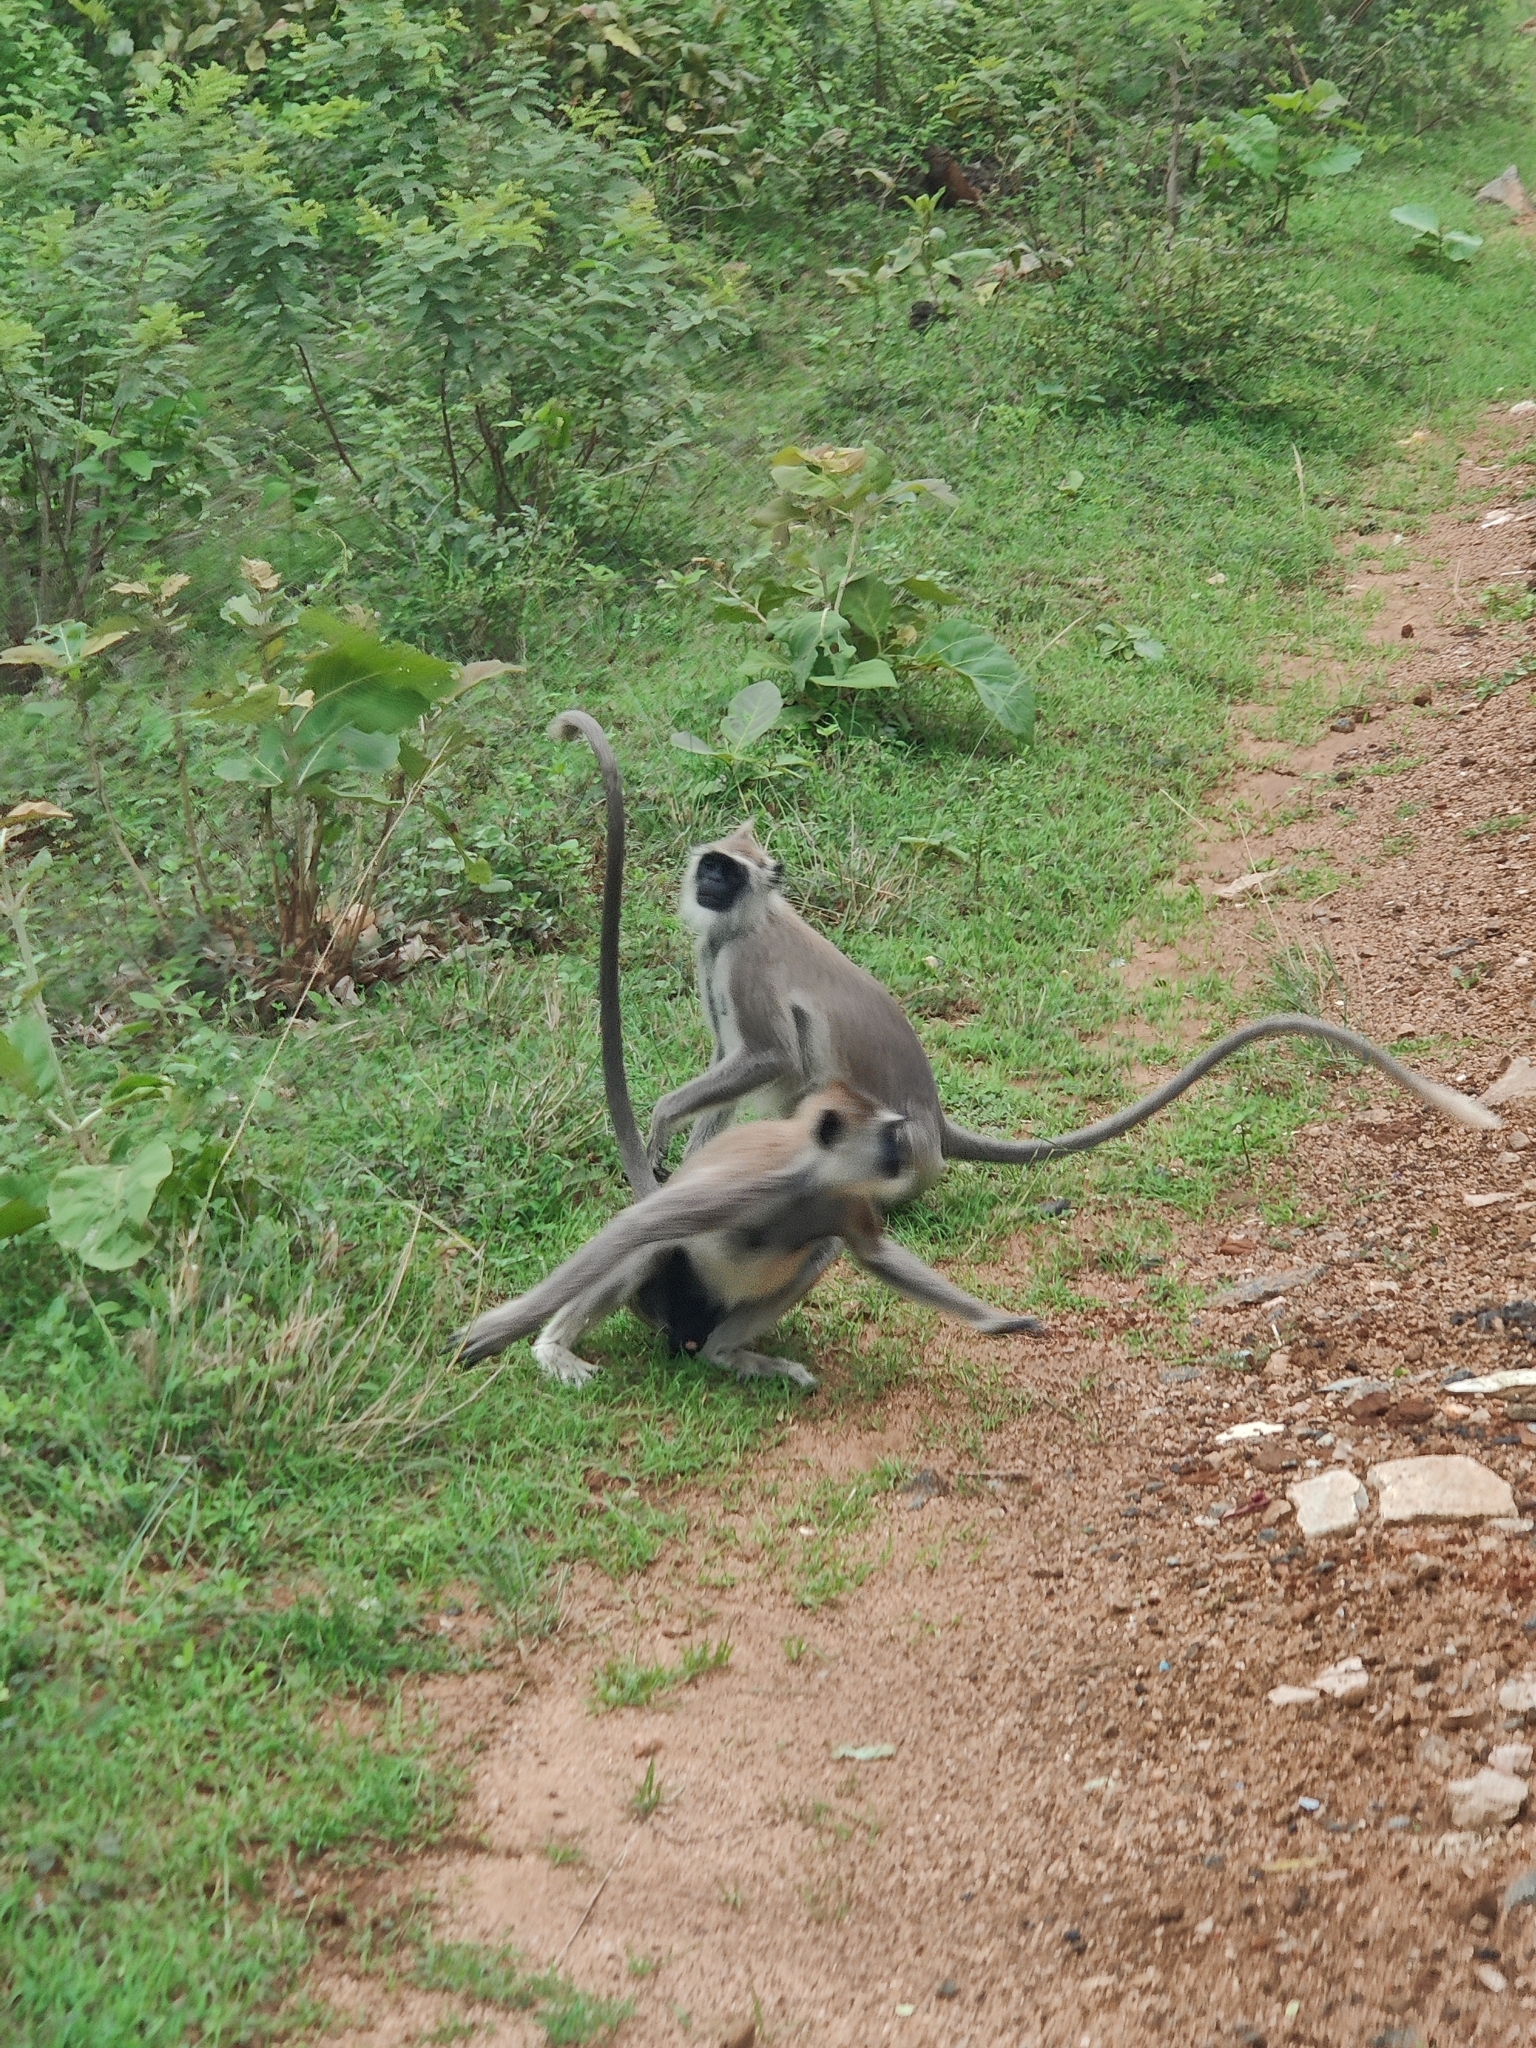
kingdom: Animalia
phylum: Chordata
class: Mammalia
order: Primates
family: Cercopithecidae
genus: Semnopithecus
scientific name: Semnopithecus priam
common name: Tufted gray langur
